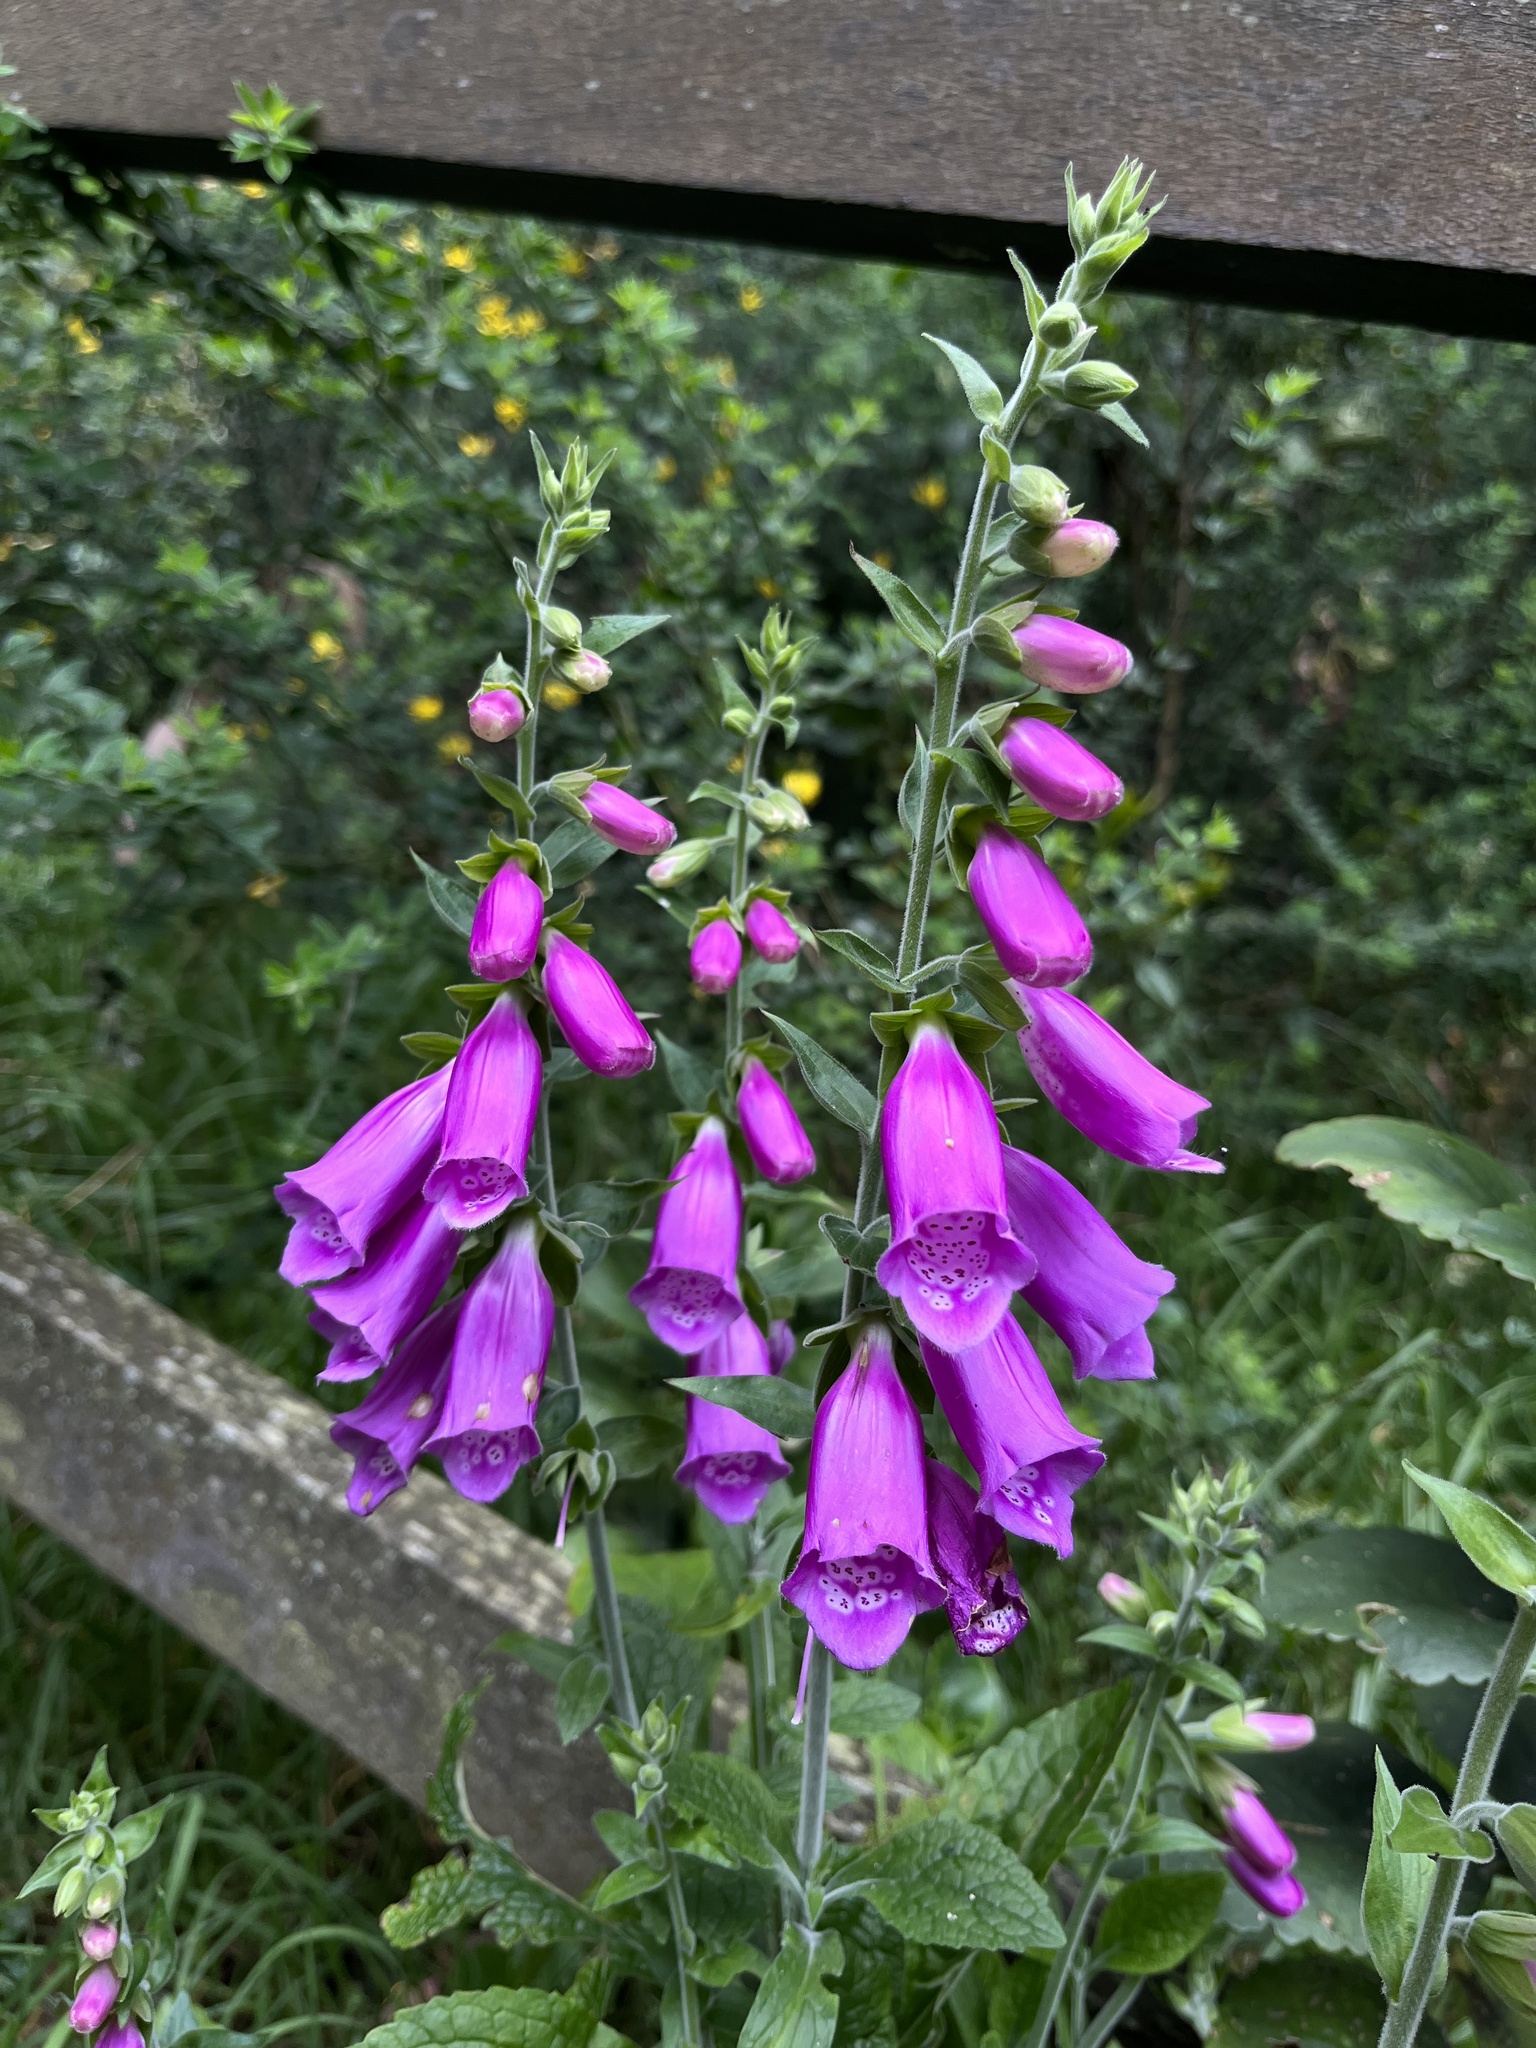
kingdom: Plantae
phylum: Tracheophyta
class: Magnoliopsida
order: Lamiales
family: Plantaginaceae
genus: Digitalis
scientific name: Digitalis purpurea
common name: Foxglove
